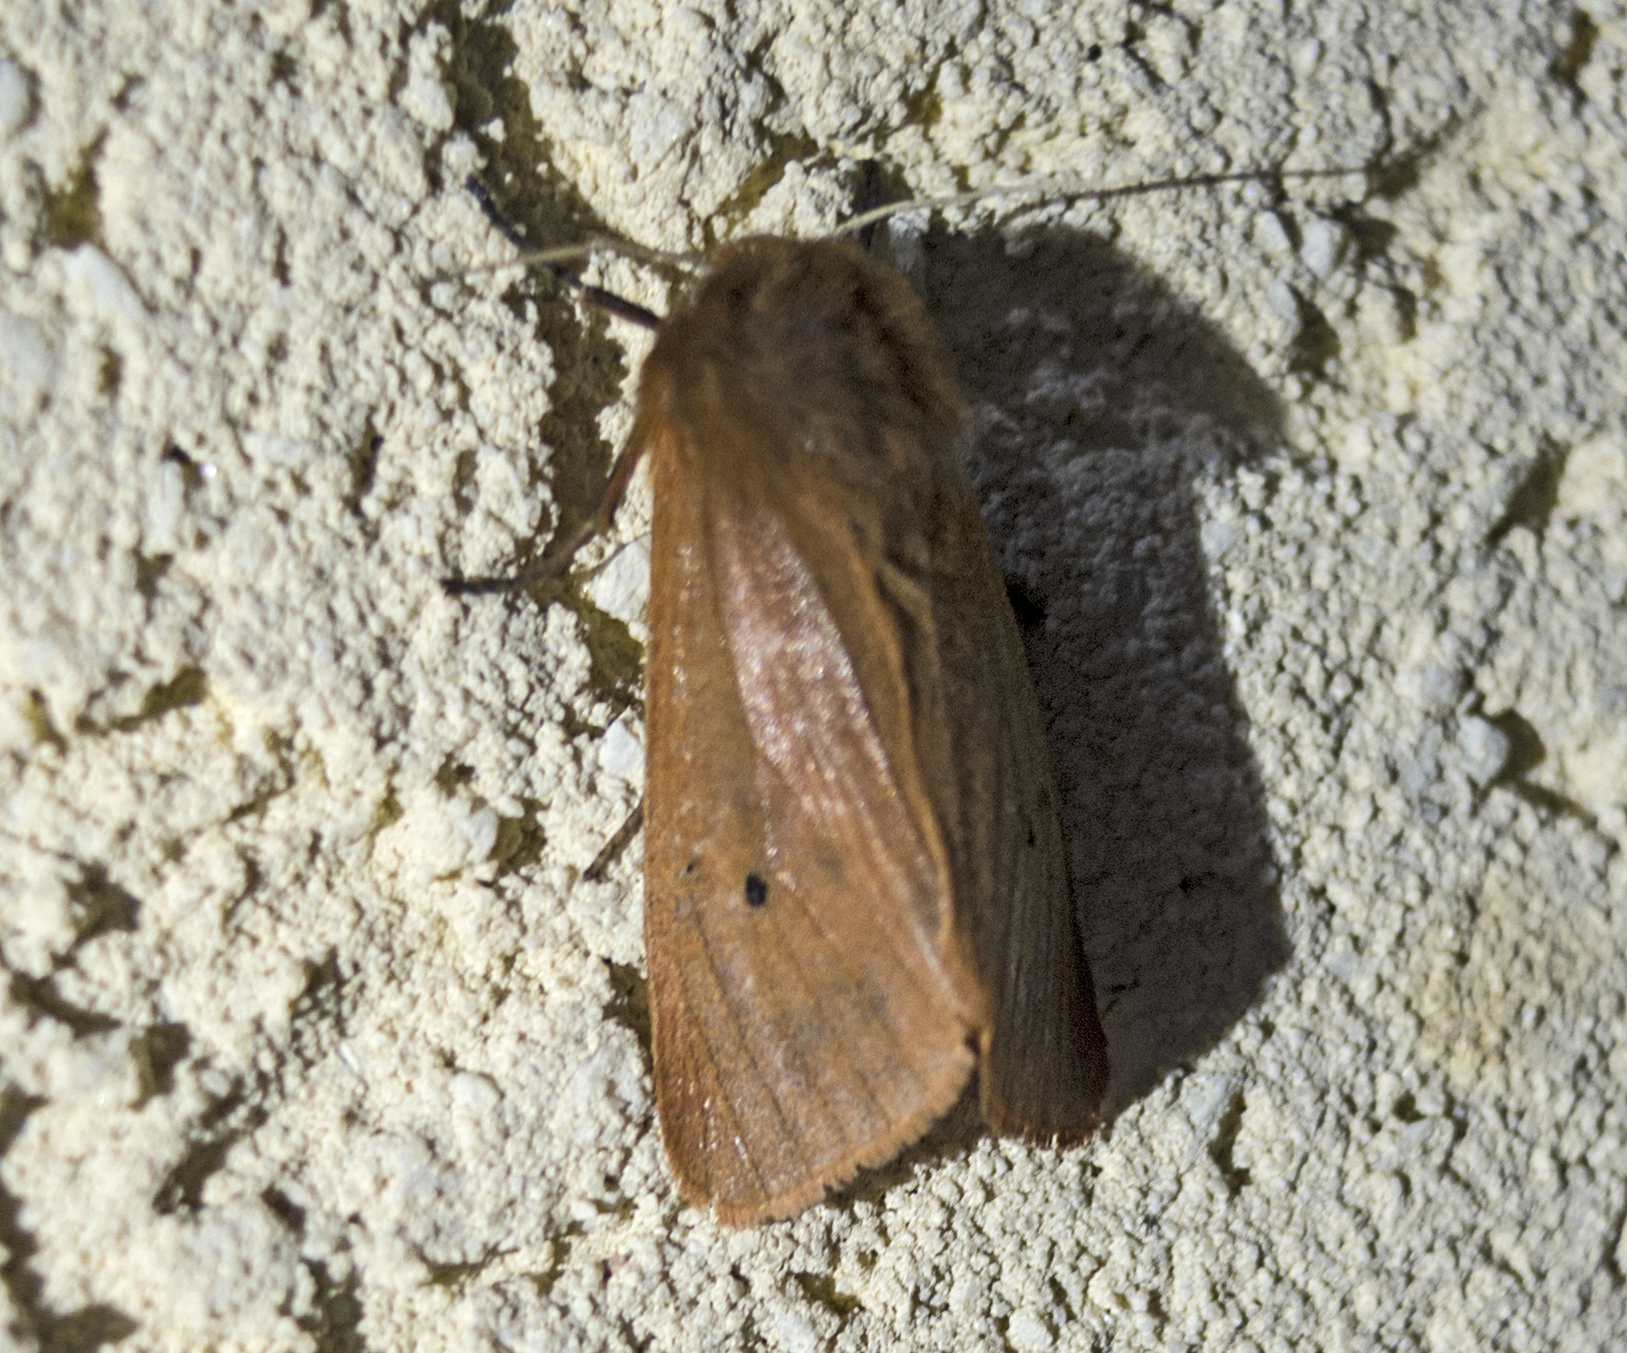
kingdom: Animalia
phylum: Arthropoda
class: Insecta
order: Lepidoptera
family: Erebidae
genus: Phragmatobia
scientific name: Phragmatobia fuliginosa
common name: Ruby tiger
